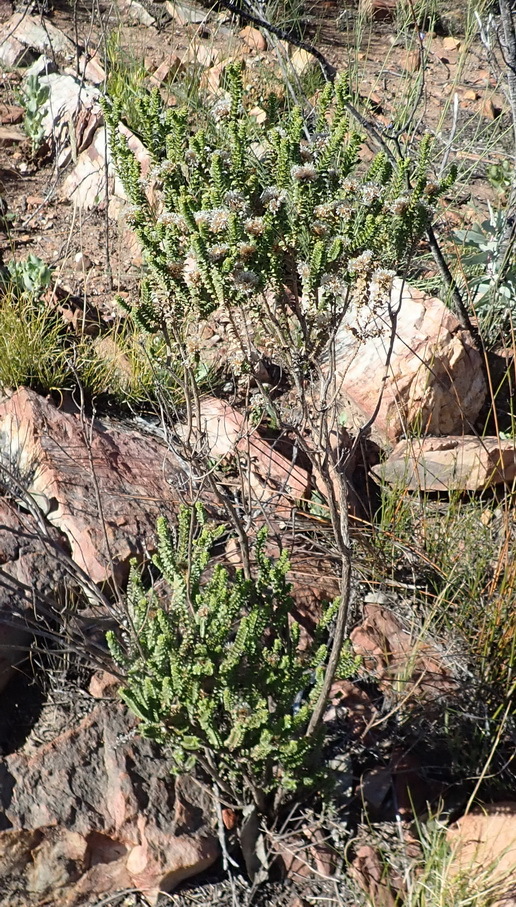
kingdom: Plantae
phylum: Tracheophyta
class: Magnoliopsida
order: Asterales
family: Asteraceae
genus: Oedera
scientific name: Oedera squarrosa
